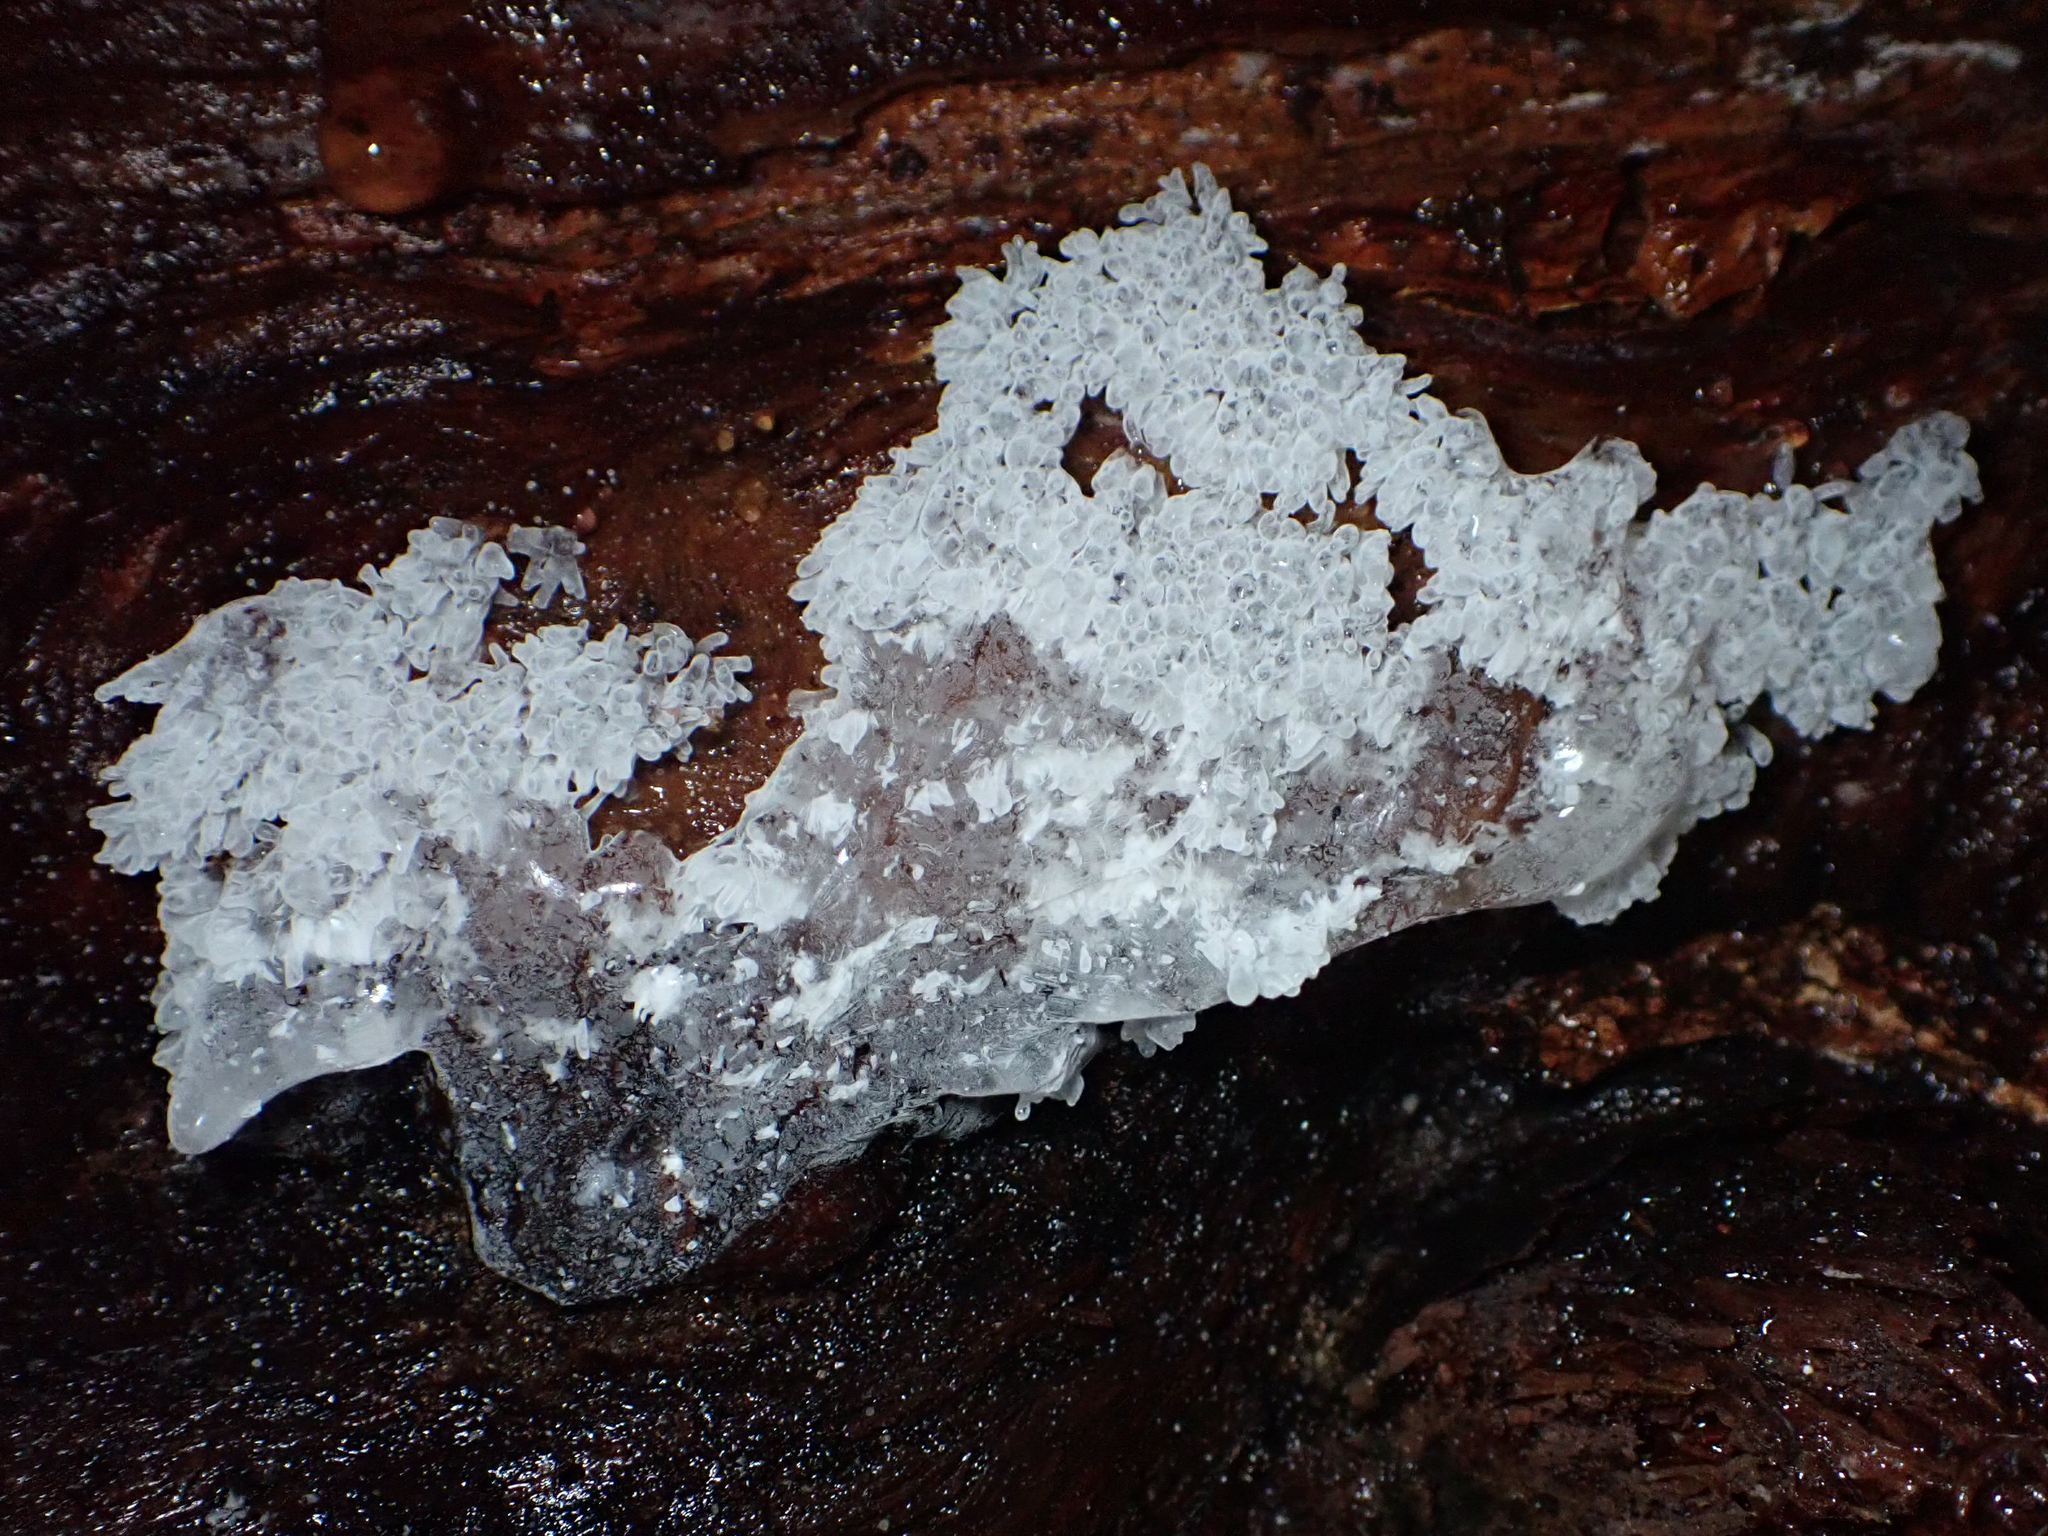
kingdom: Protozoa
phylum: Mycetozoa
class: Protosteliomycetes
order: Ceratiomyxales
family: Ceratiomyxaceae
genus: Ceratiomyxa
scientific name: Ceratiomyxa fruticulosa
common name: Honeycomb coral slime mold
